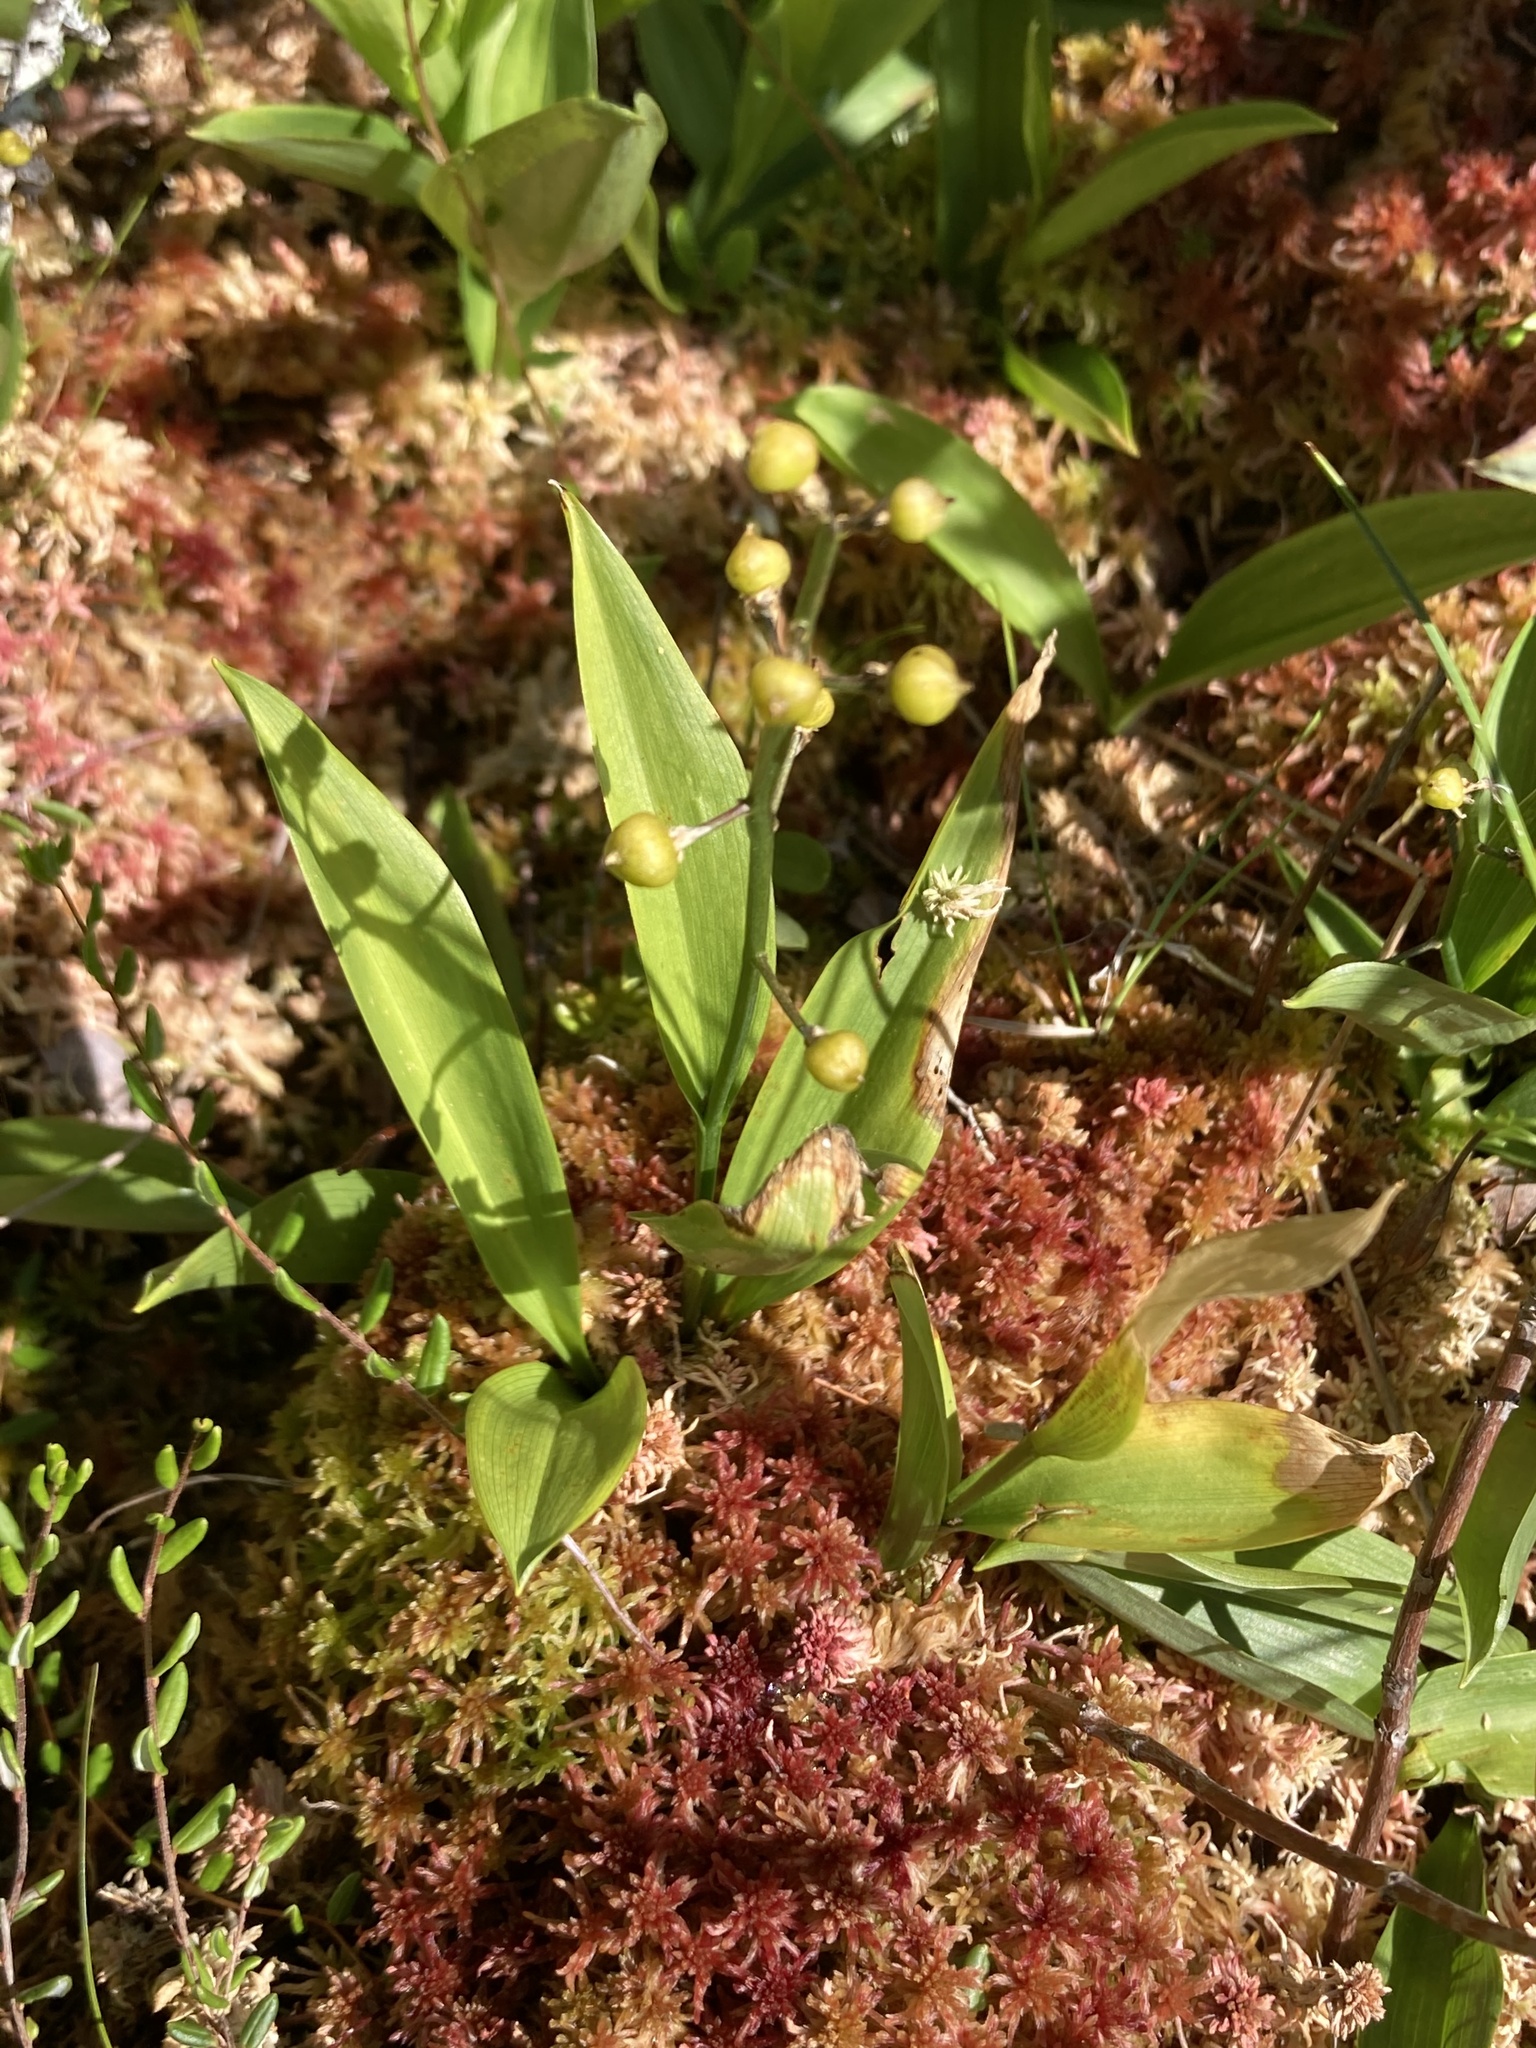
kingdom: Plantae
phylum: Tracheophyta
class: Liliopsida
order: Asparagales
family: Asparagaceae
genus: Maianthemum
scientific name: Maianthemum trifolium
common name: Swamp false solomon's seal
